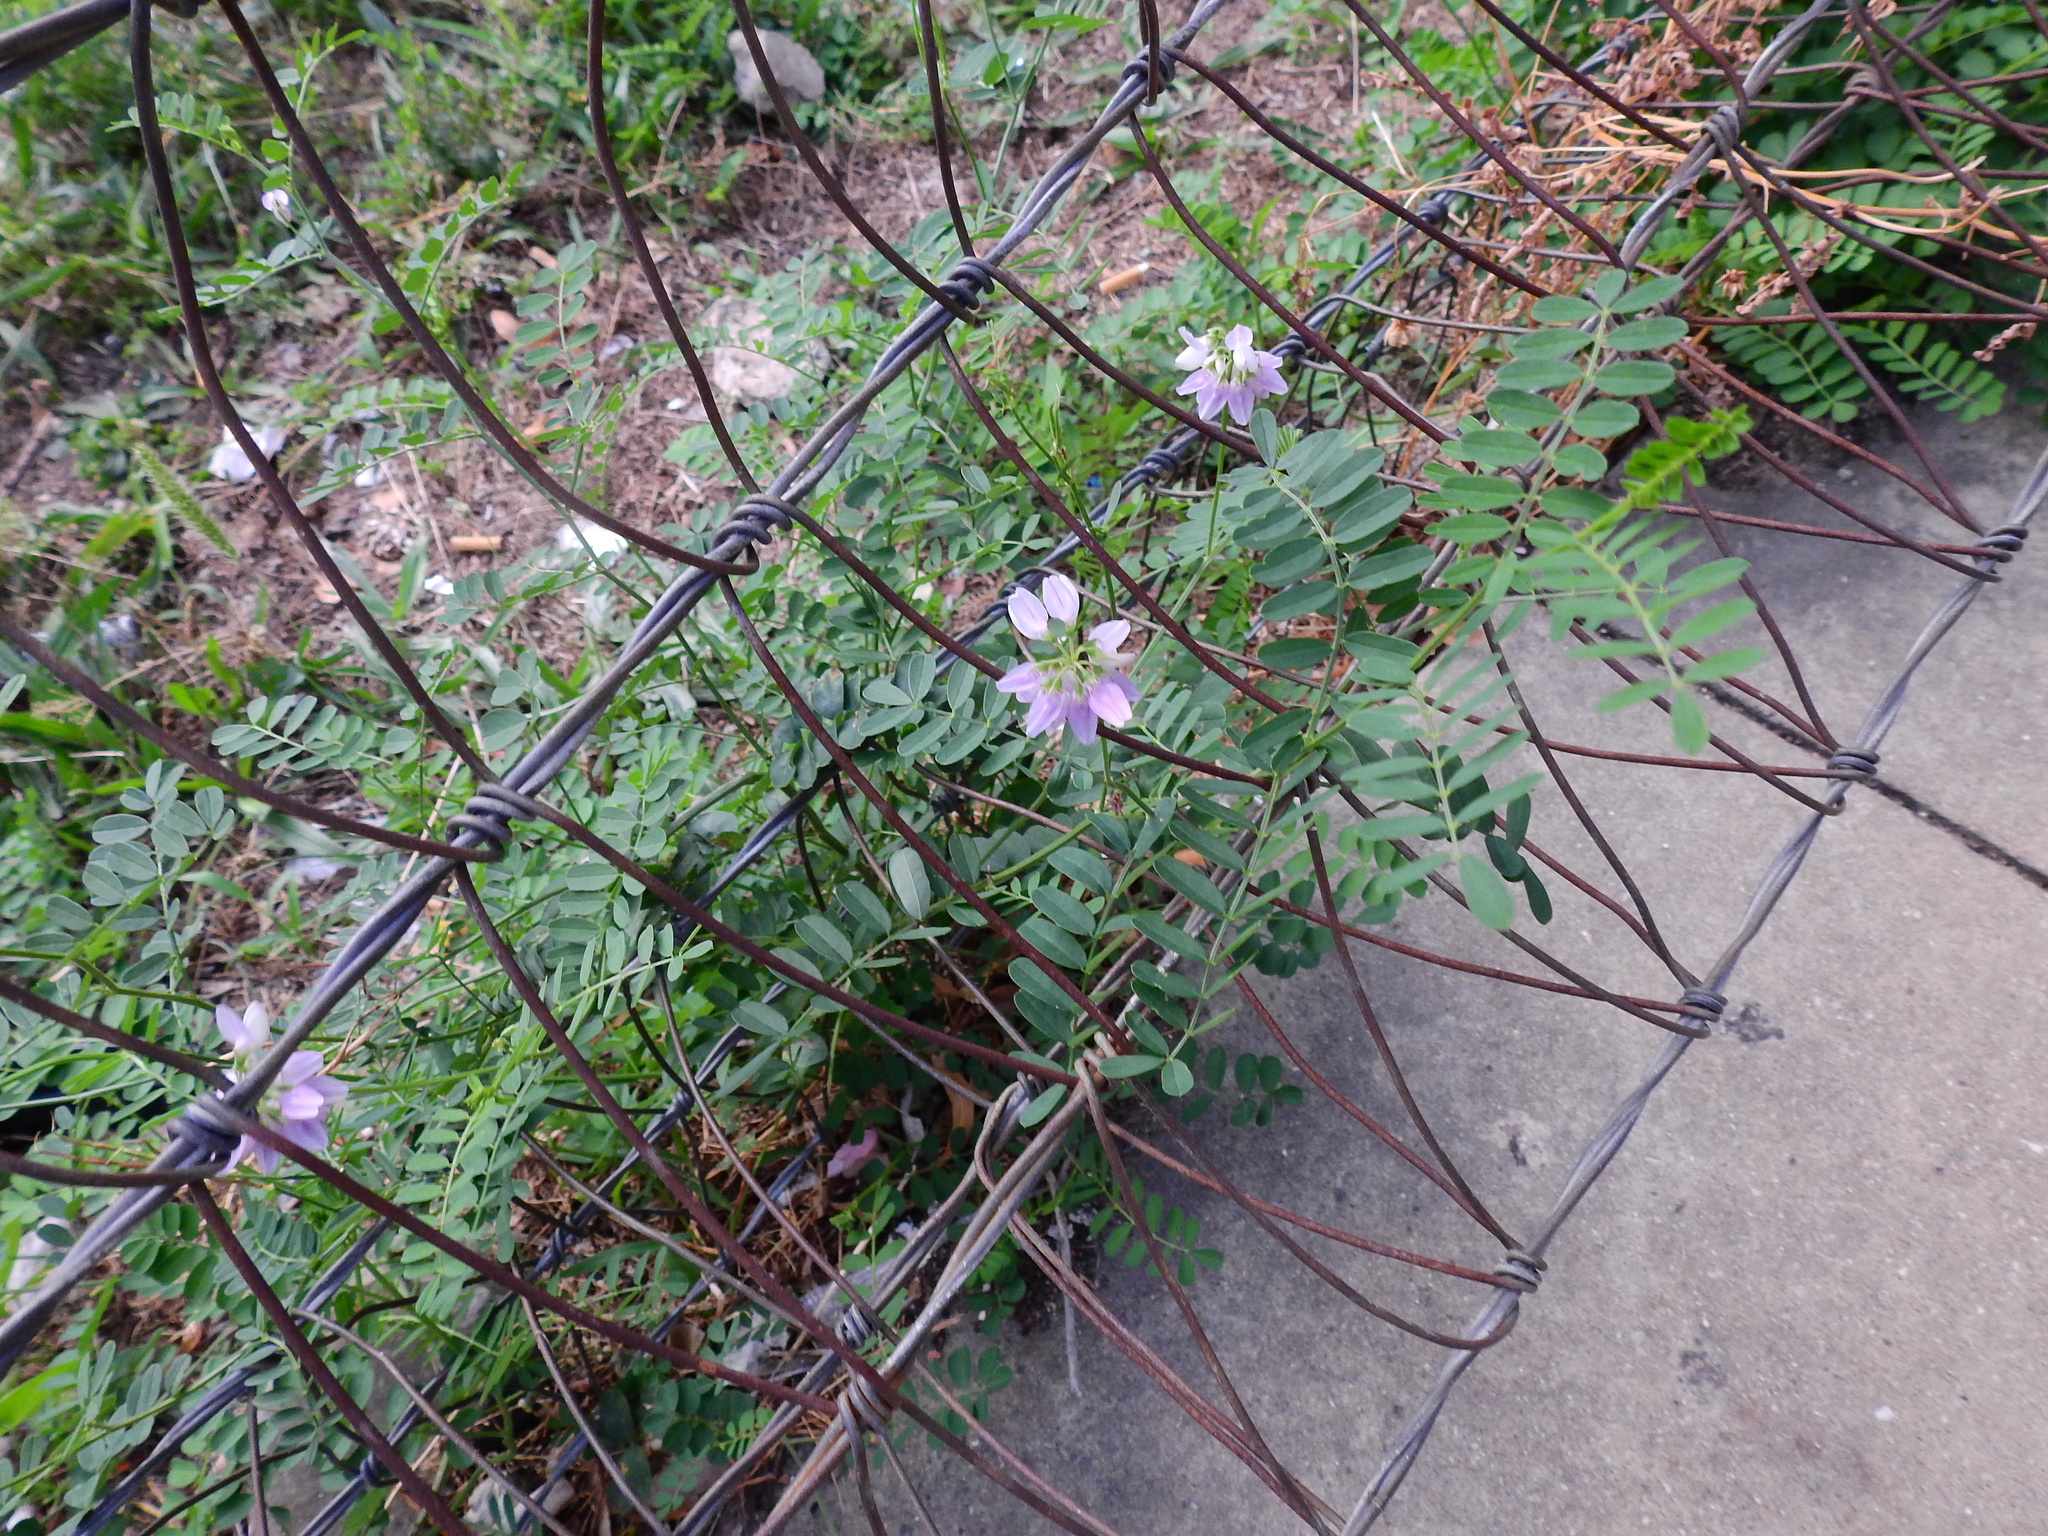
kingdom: Plantae
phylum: Tracheophyta
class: Magnoliopsida
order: Fabales
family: Fabaceae
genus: Coronilla
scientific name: Coronilla varia
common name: Crownvetch
